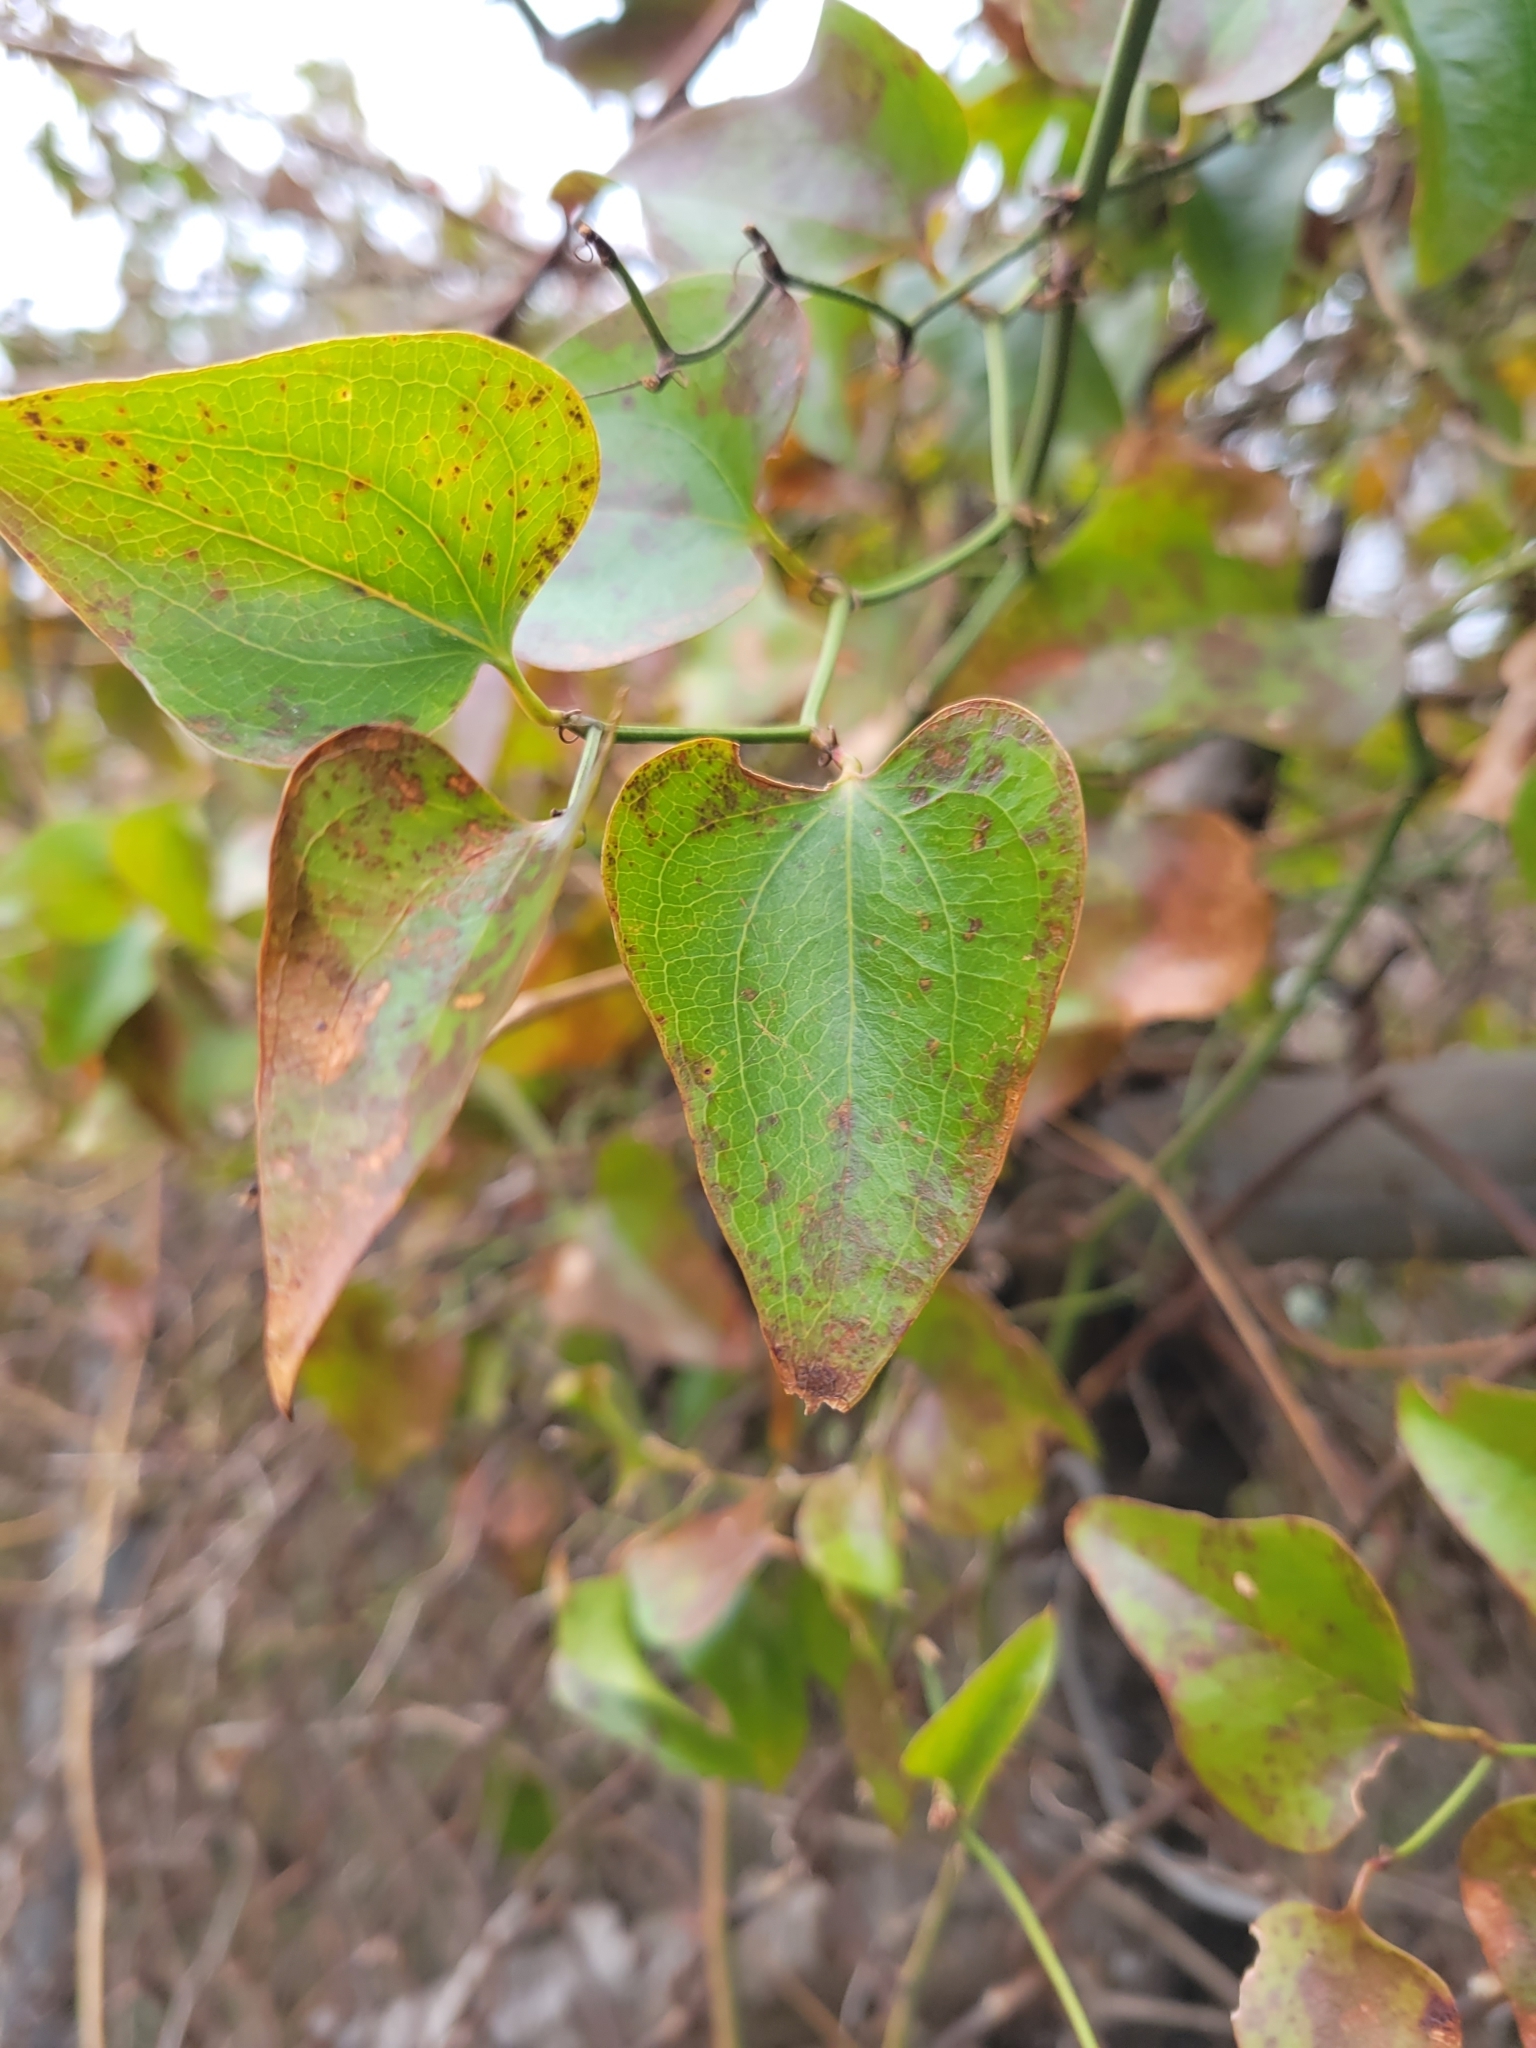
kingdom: Plantae
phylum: Tracheophyta
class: Liliopsida
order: Liliales
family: Smilacaceae
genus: Smilax
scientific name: Smilax bona-nox
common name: Catbrier
